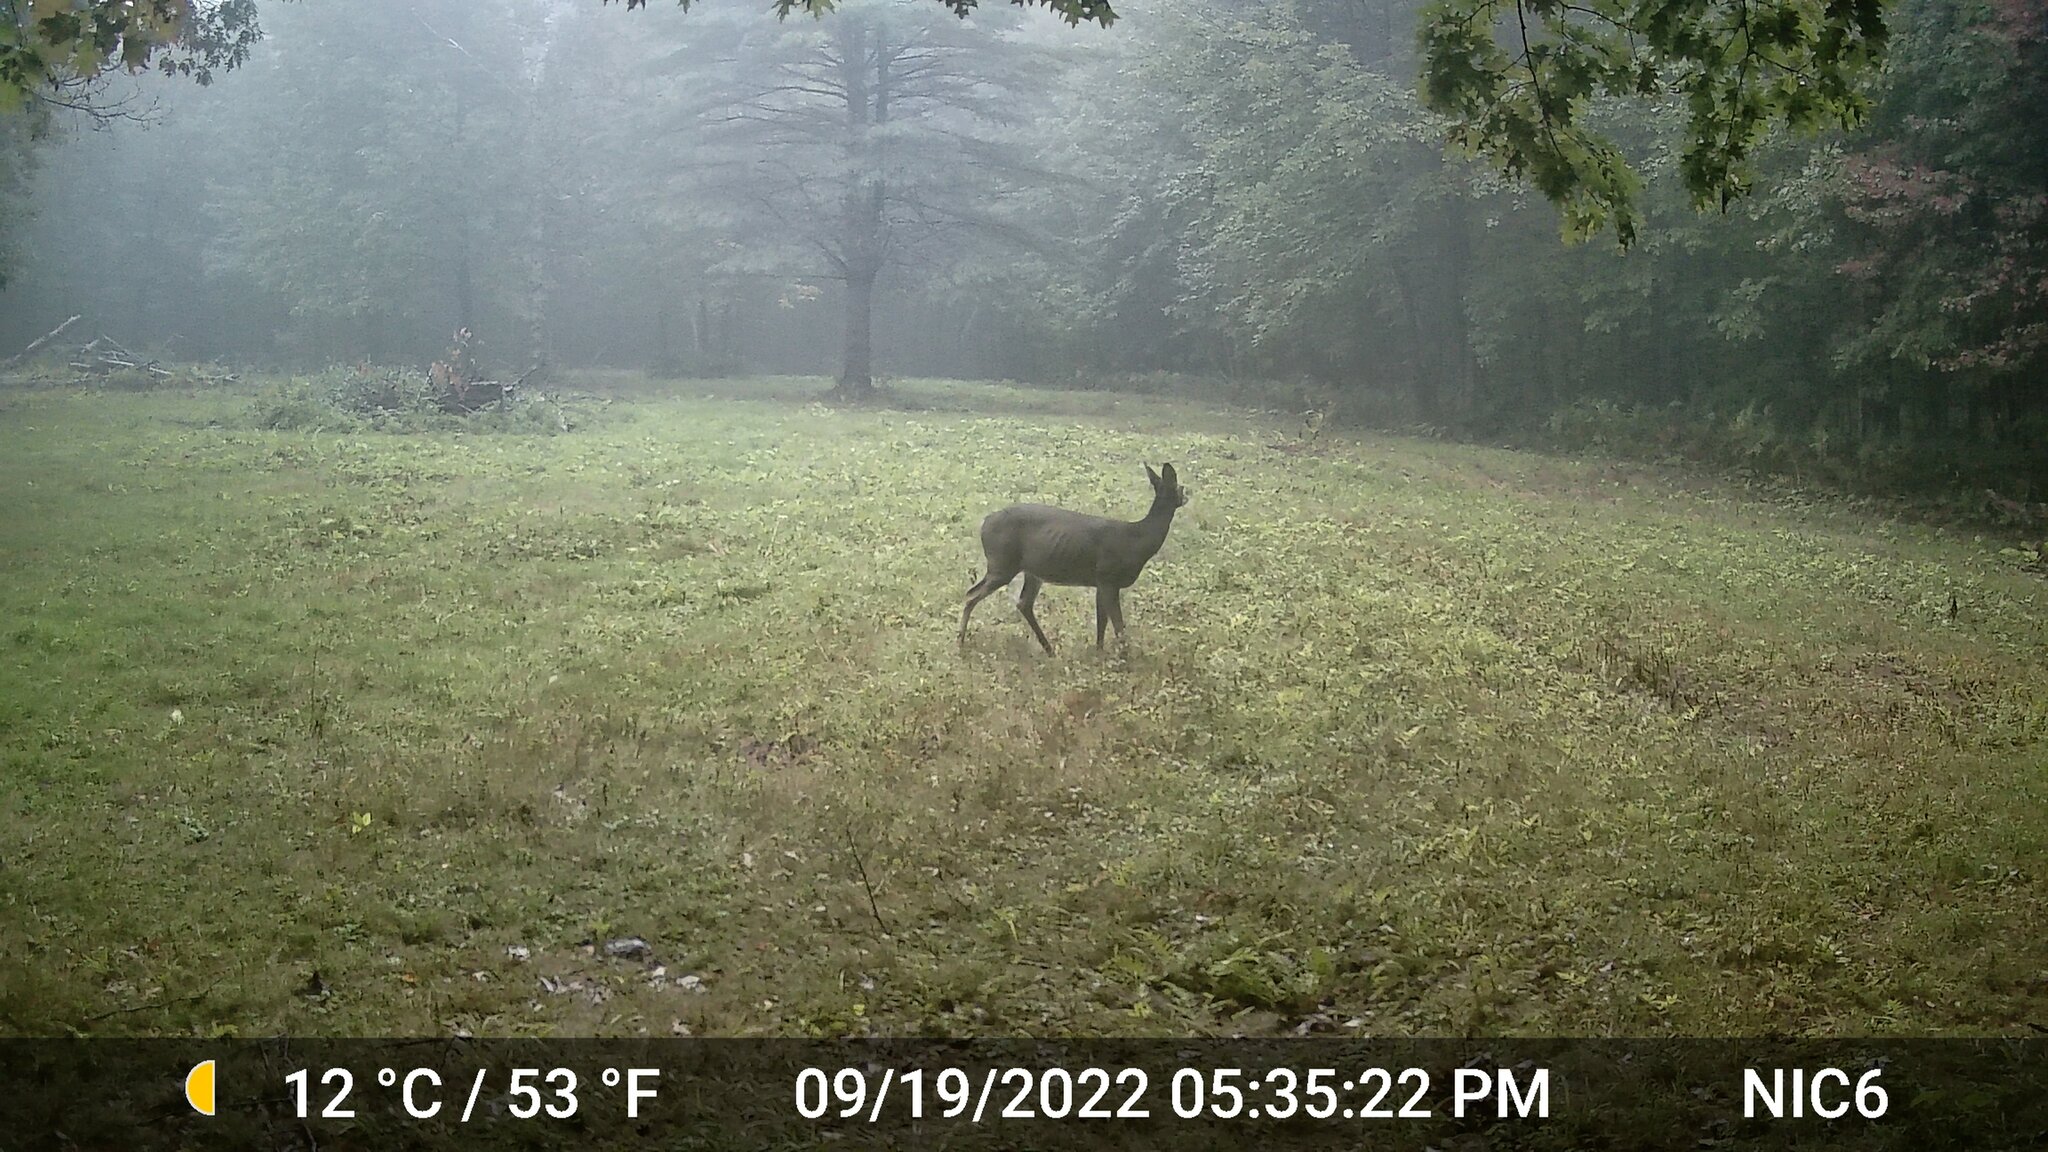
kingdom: Animalia
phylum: Chordata
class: Mammalia
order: Artiodactyla
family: Cervidae
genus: Odocoileus
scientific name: Odocoileus virginianus
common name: White-tailed deer
